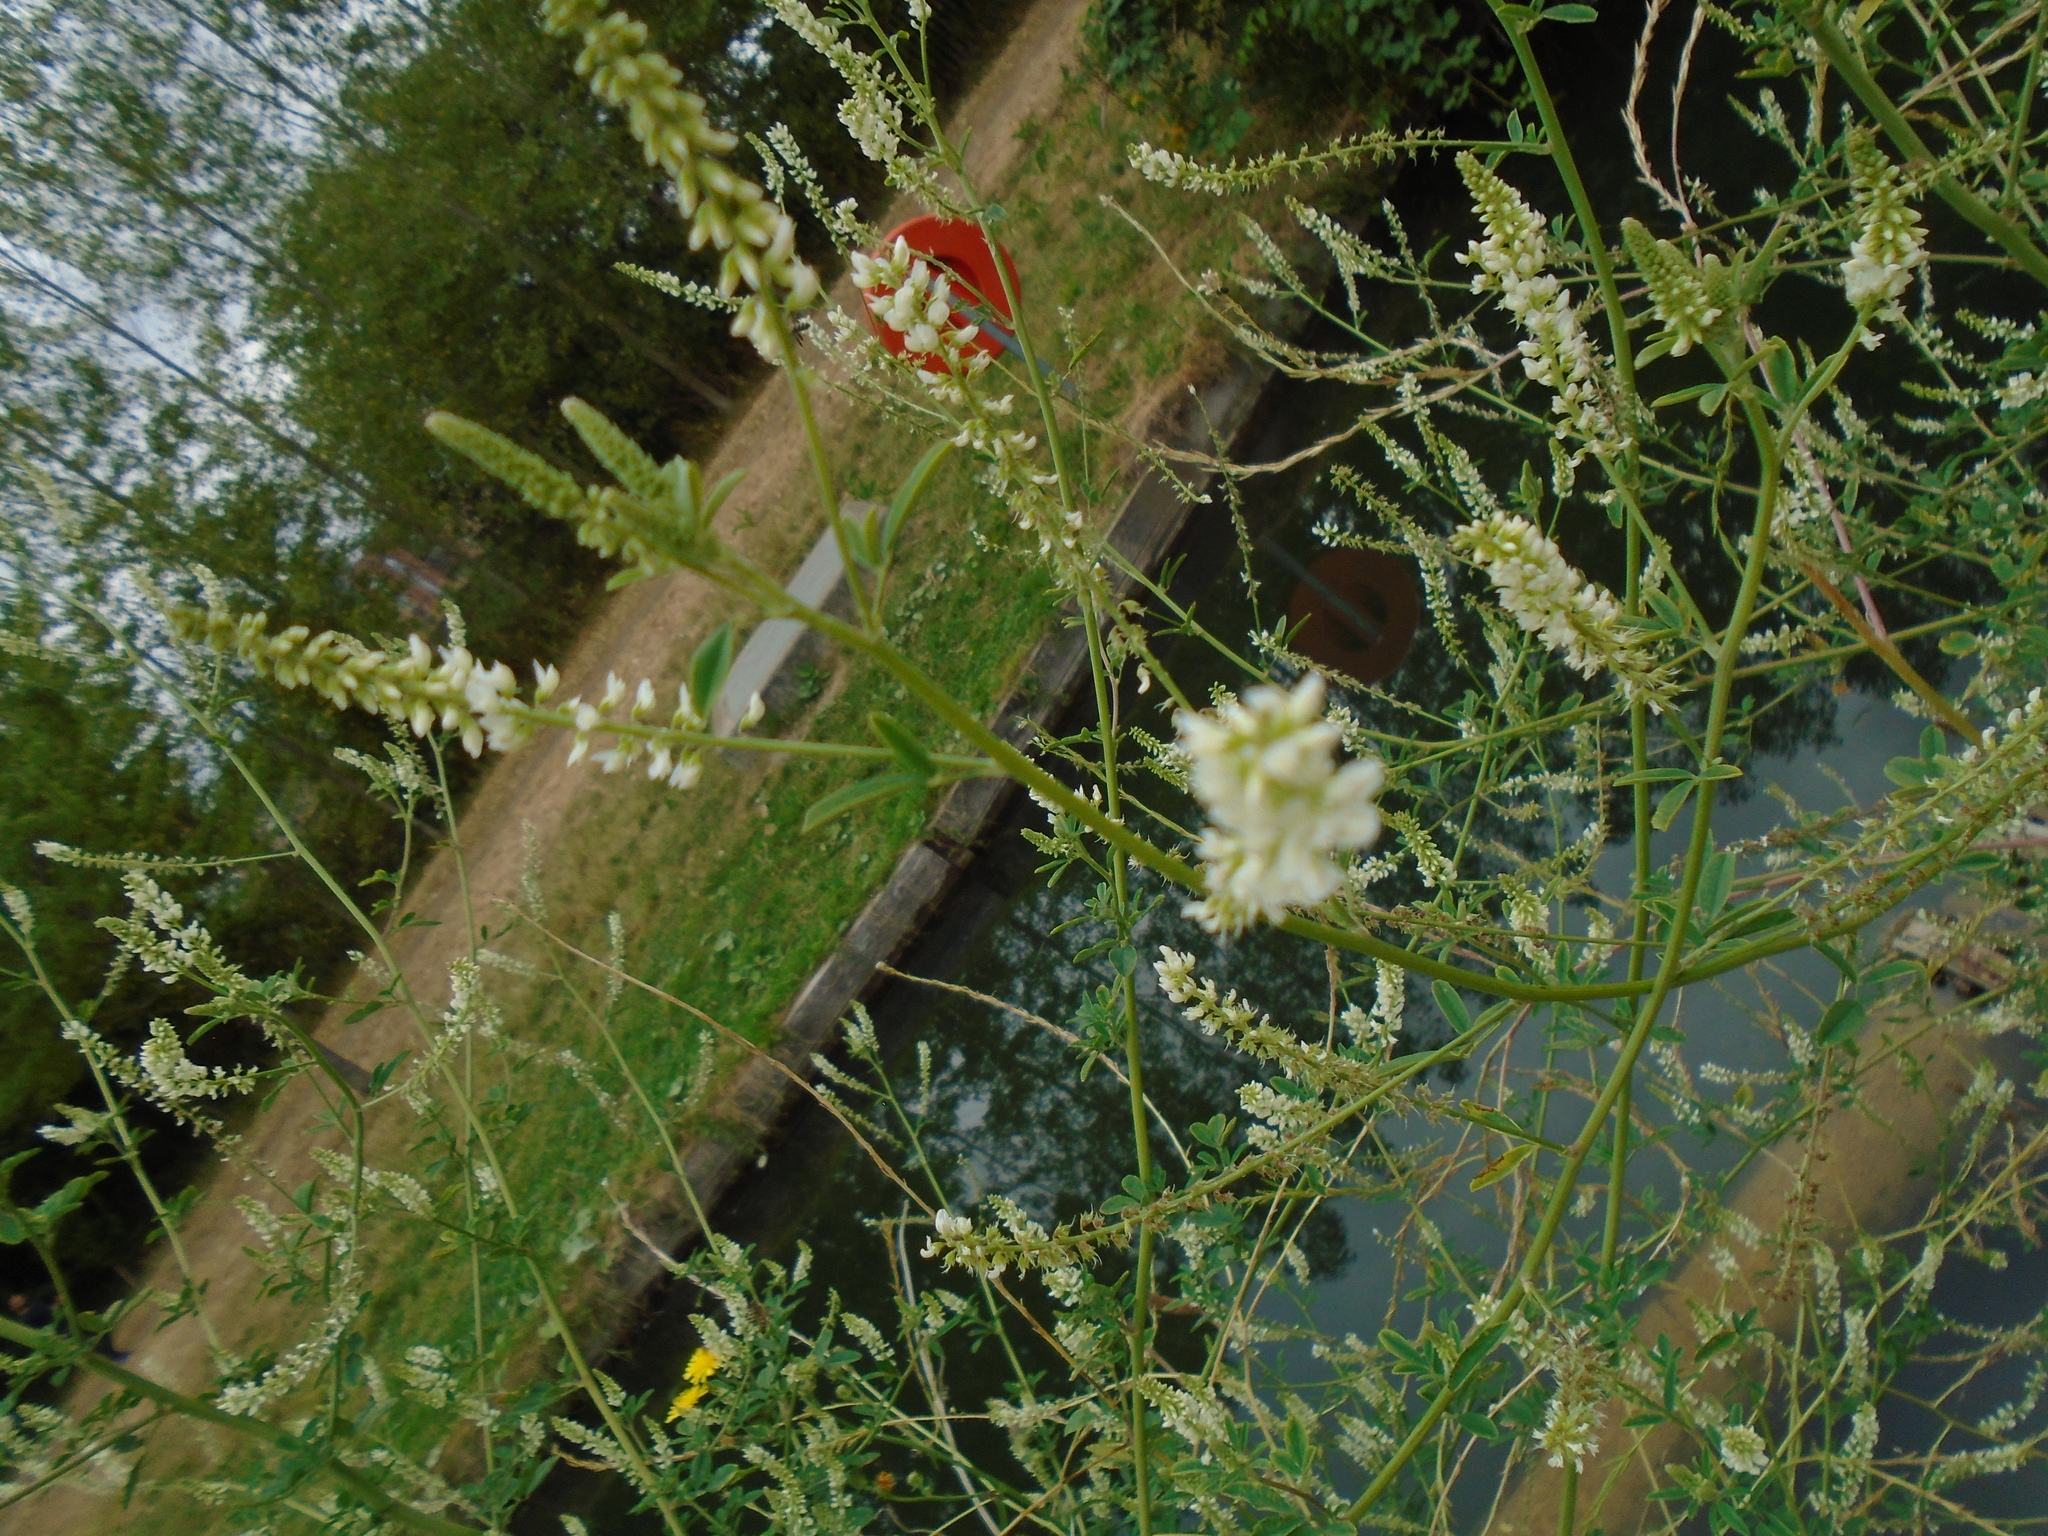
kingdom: Plantae
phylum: Tracheophyta
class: Magnoliopsida
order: Fabales
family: Fabaceae
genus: Melilotus
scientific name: Melilotus albus
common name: White melilot
